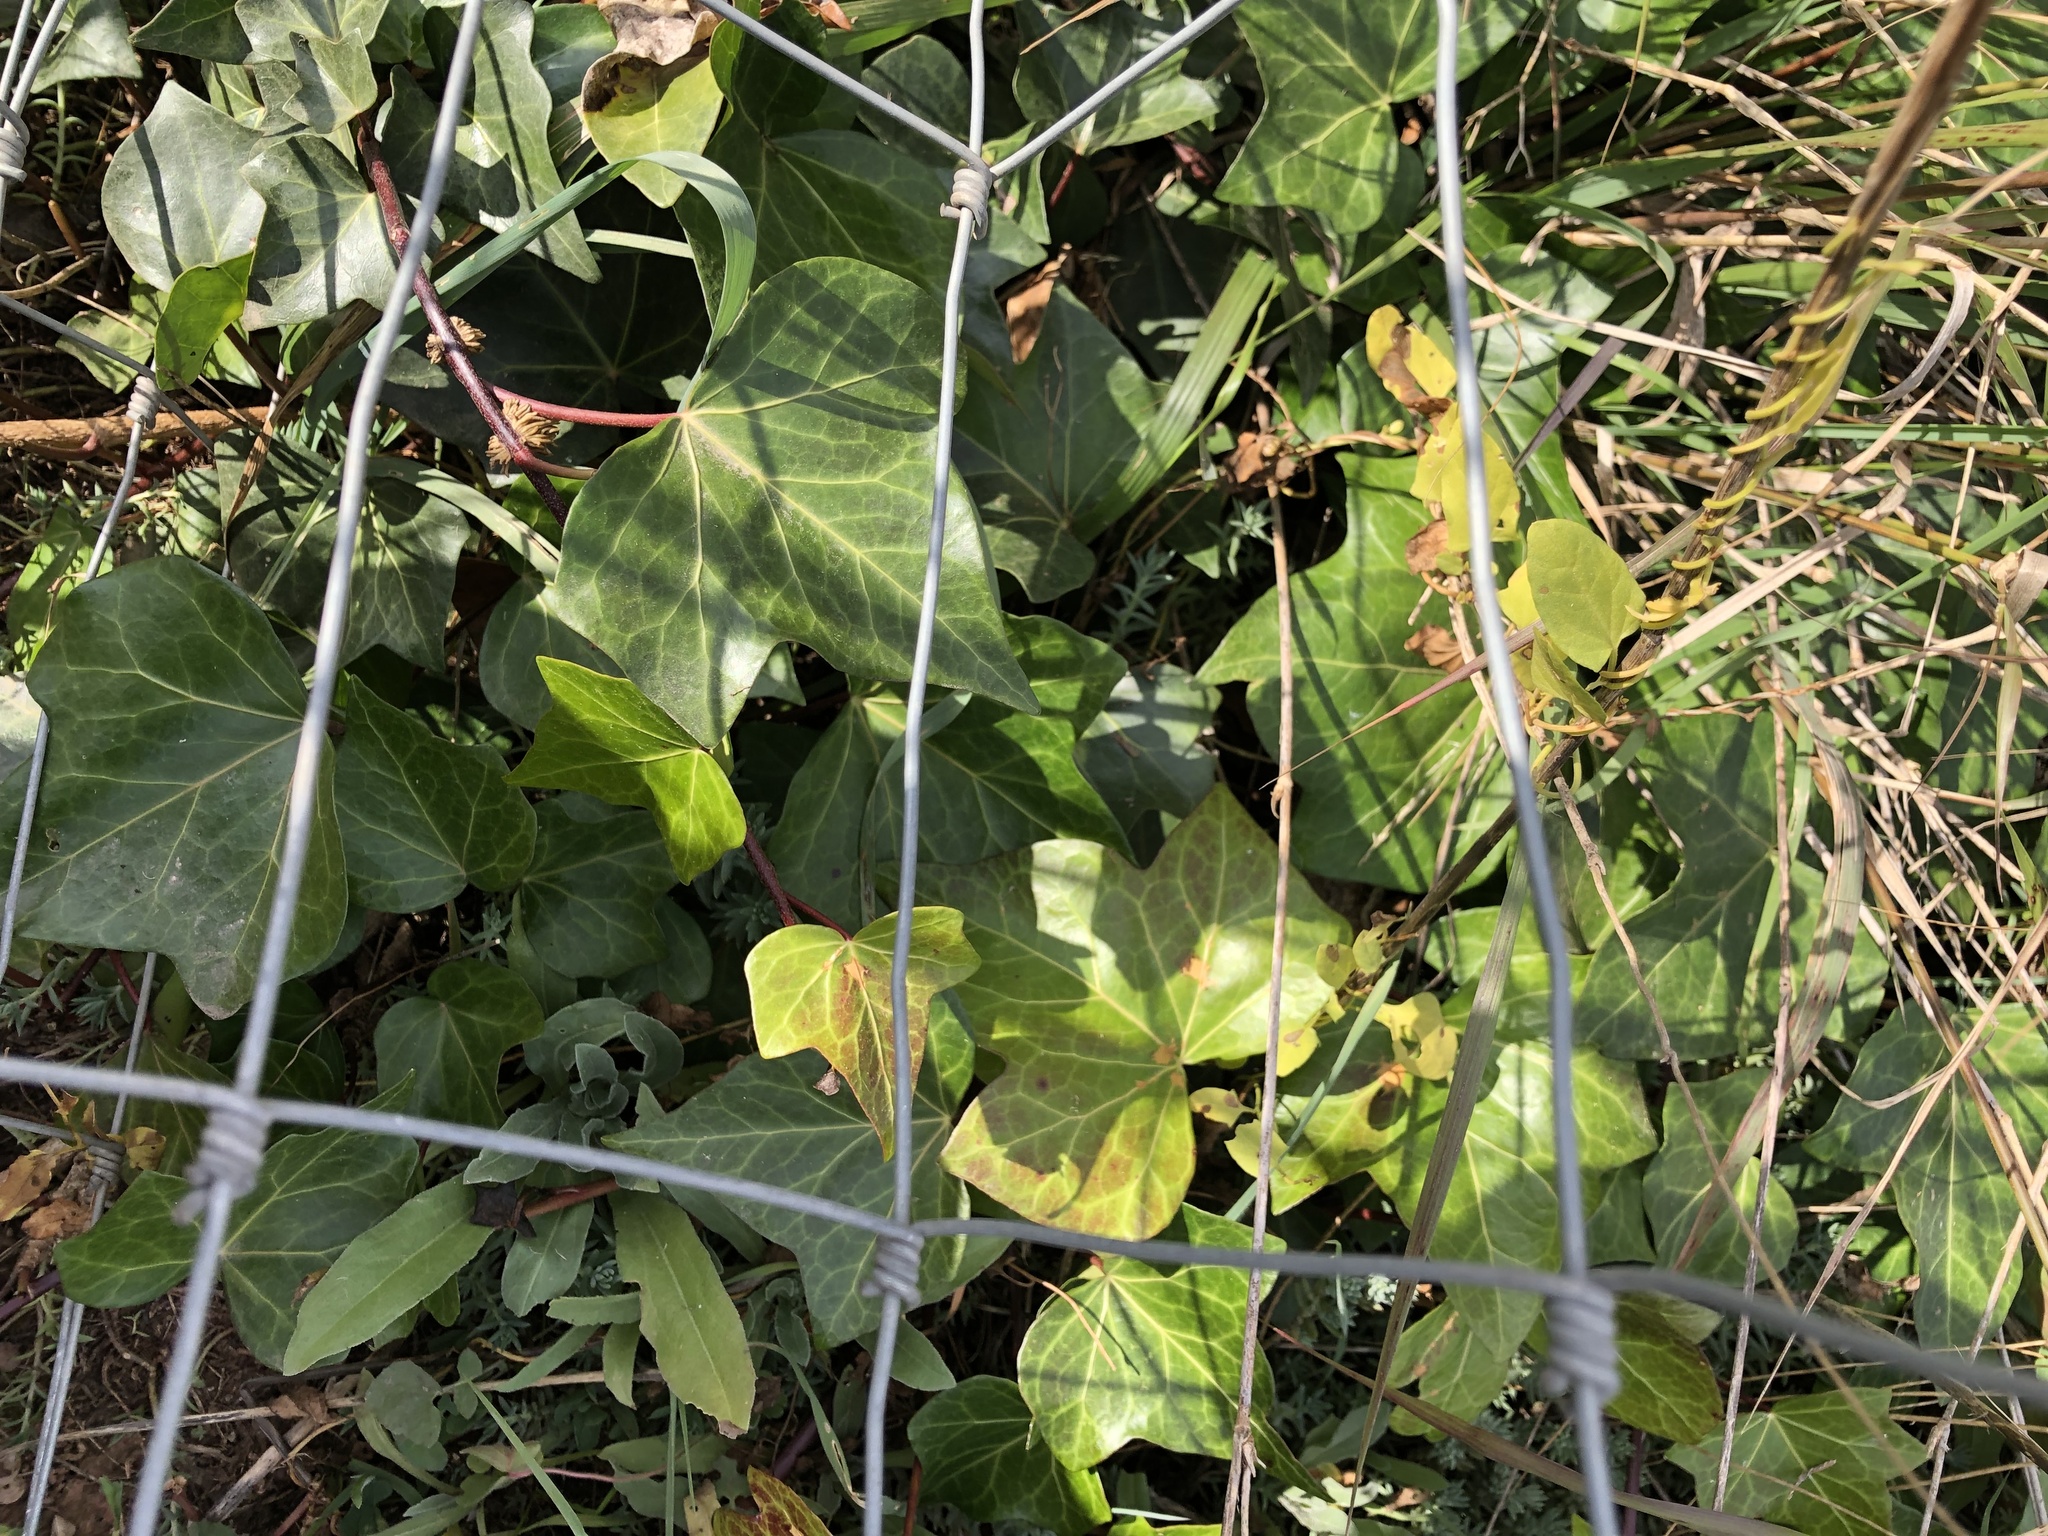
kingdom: Plantae
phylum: Tracheophyta
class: Magnoliopsida
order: Apiales
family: Araliaceae
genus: Hedera
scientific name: Hedera helix
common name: Ivy
